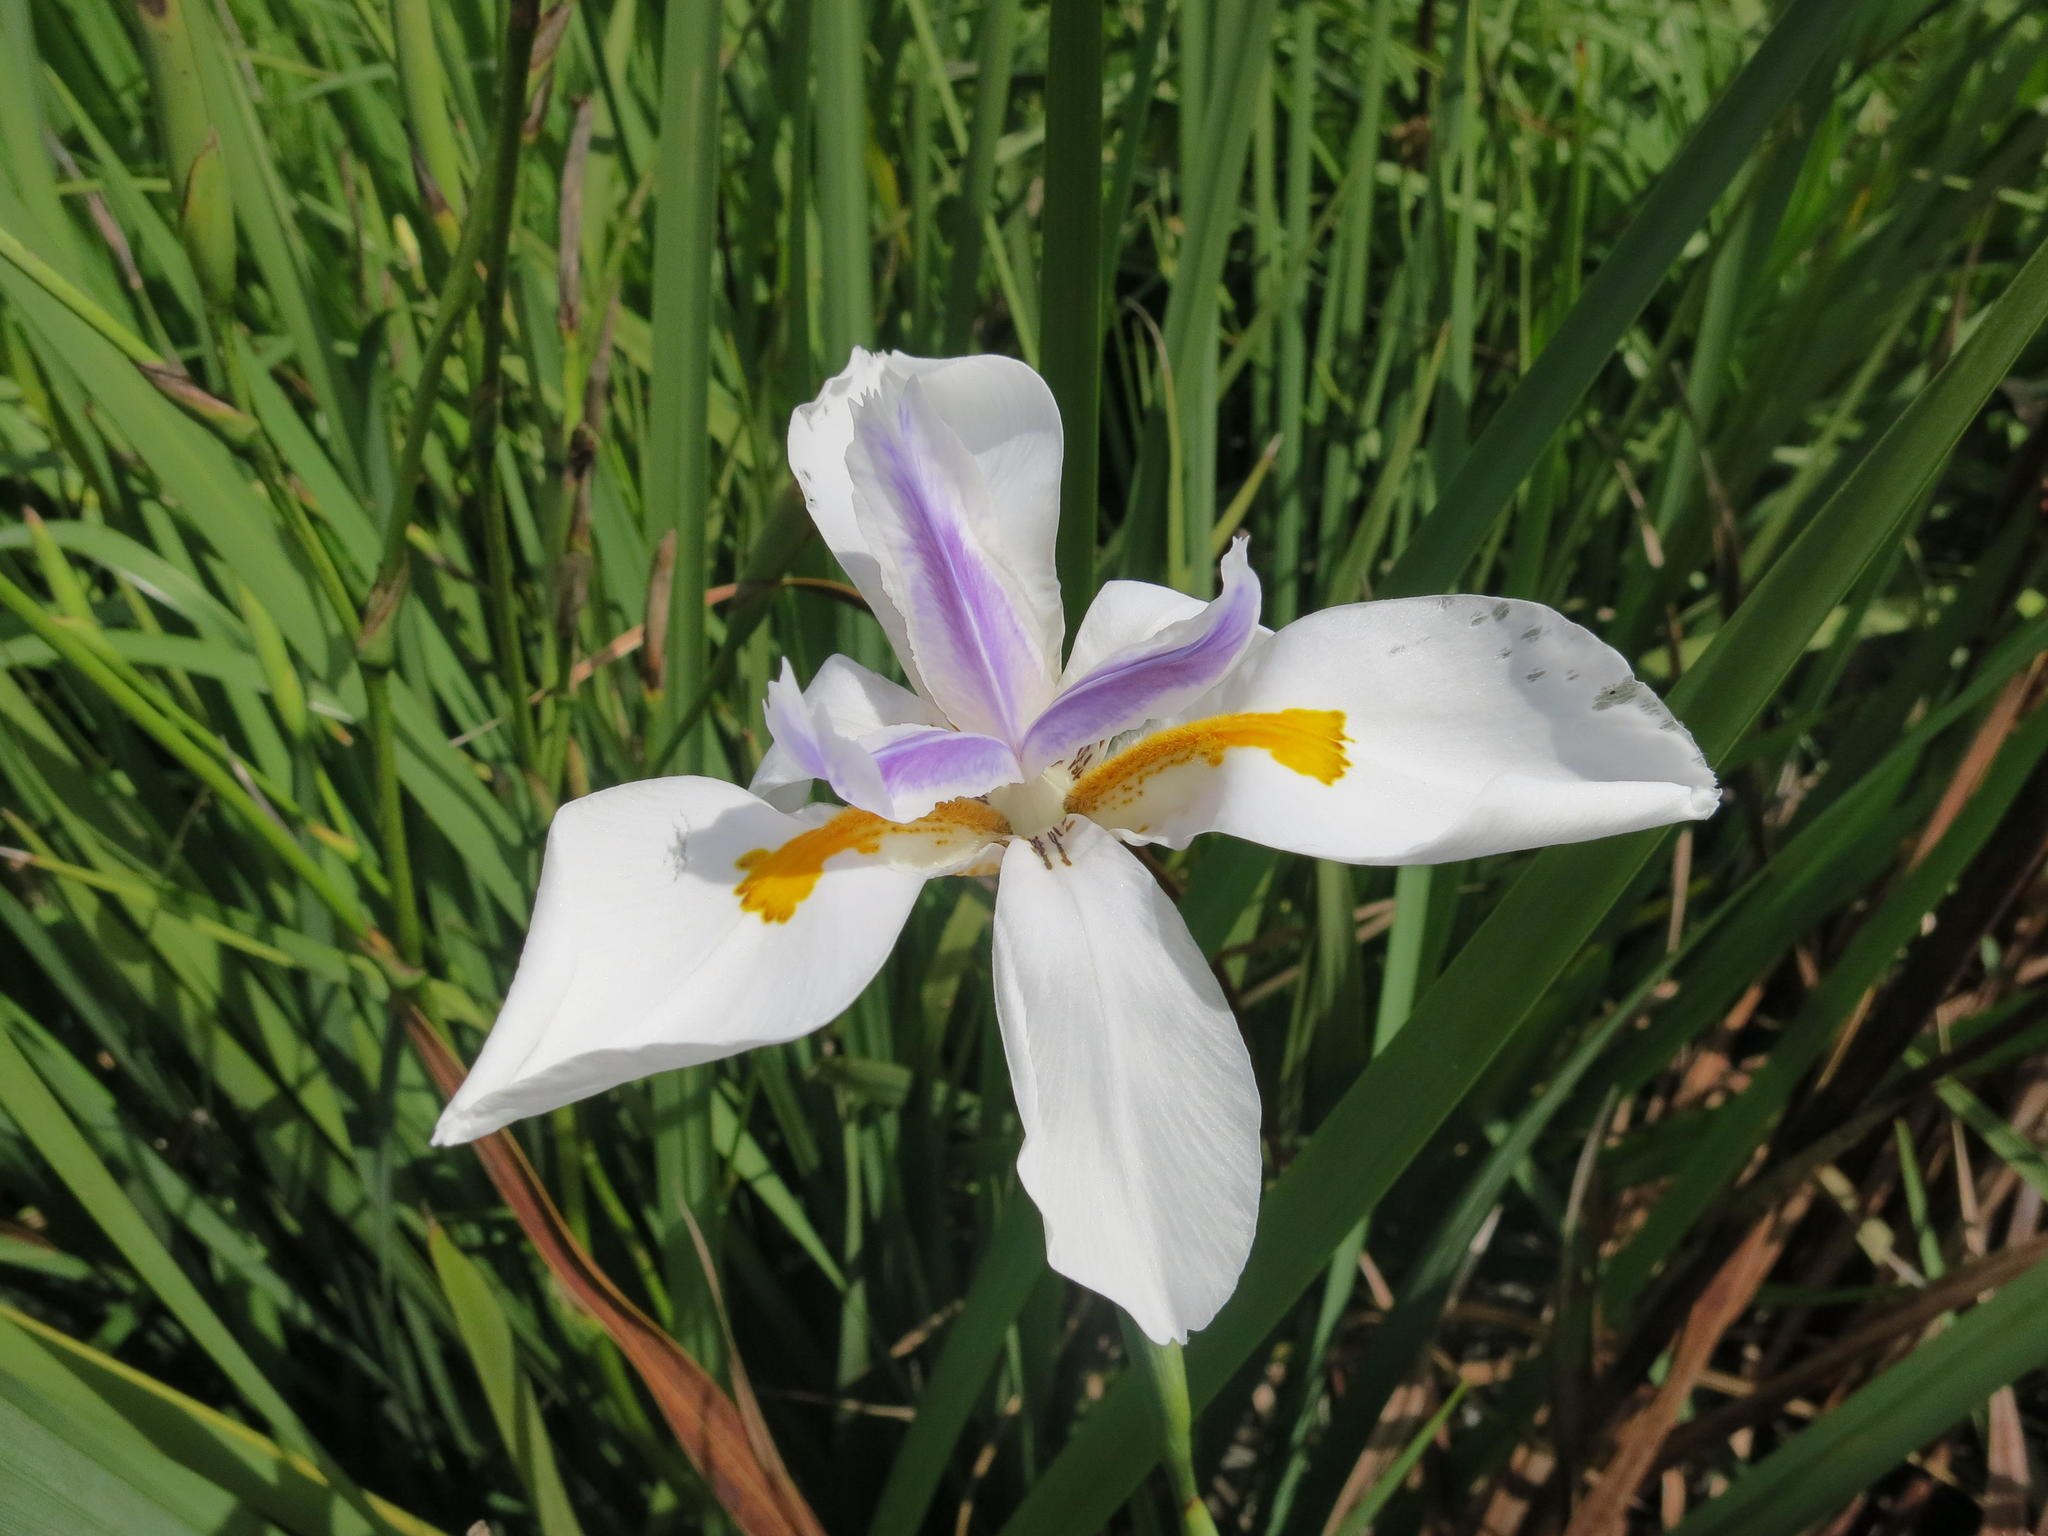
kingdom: Plantae
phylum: Tracheophyta
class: Liliopsida
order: Asparagales
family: Iridaceae
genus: Dietes
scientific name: Dietes grandiflora
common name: Wild iris
